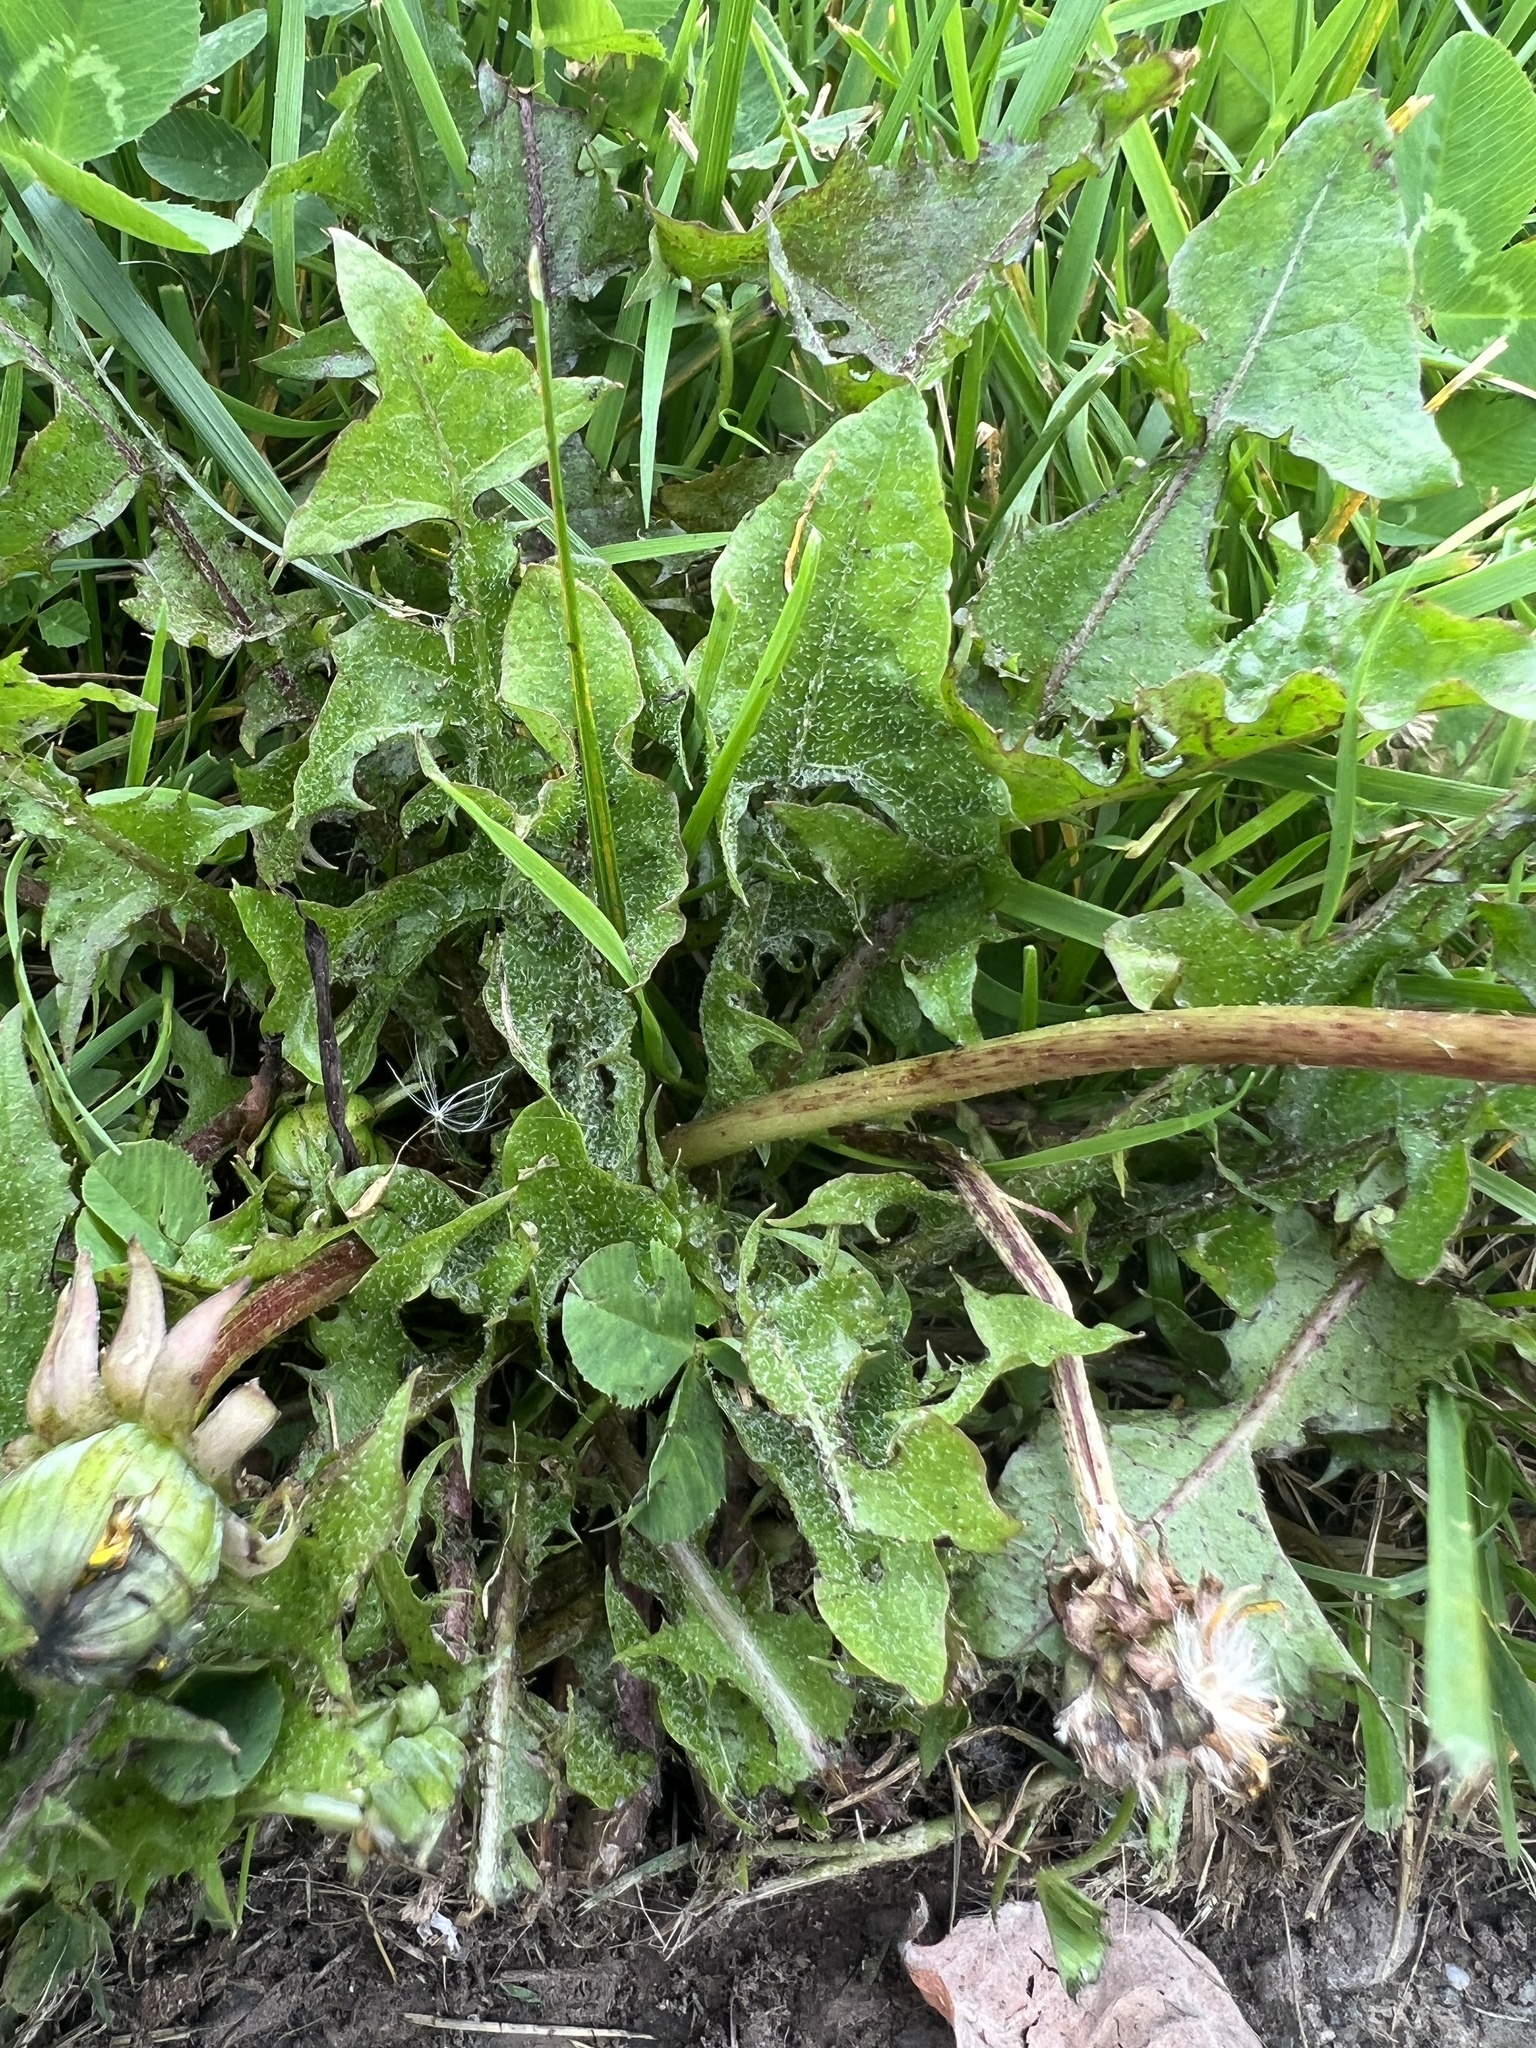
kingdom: Plantae
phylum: Tracheophyta
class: Magnoliopsida
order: Asterales
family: Asteraceae
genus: Taraxacum
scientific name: Taraxacum officinale
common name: Common dandelion
